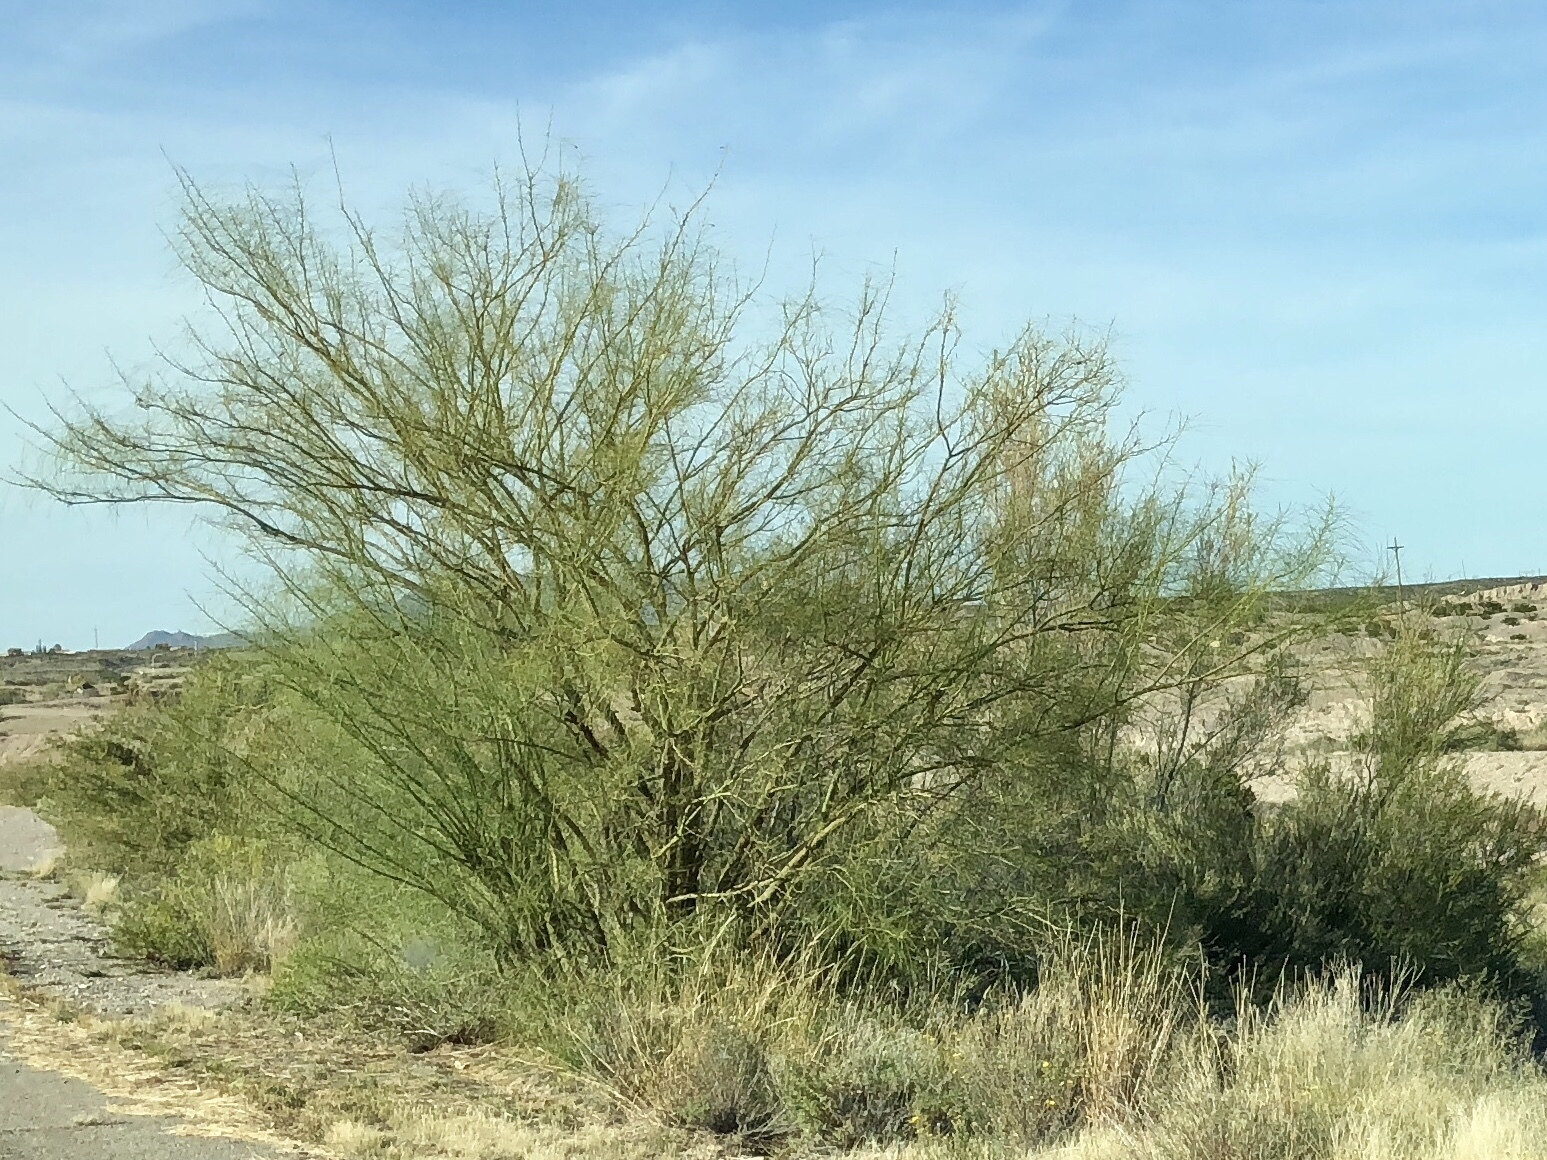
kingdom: Plantae
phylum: Tracheophyta
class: Magnoliopsida
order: Fabales
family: Fabaceae
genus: Parkinsonia
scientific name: Parkinsonia aculeata
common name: Jerusalem thorn
